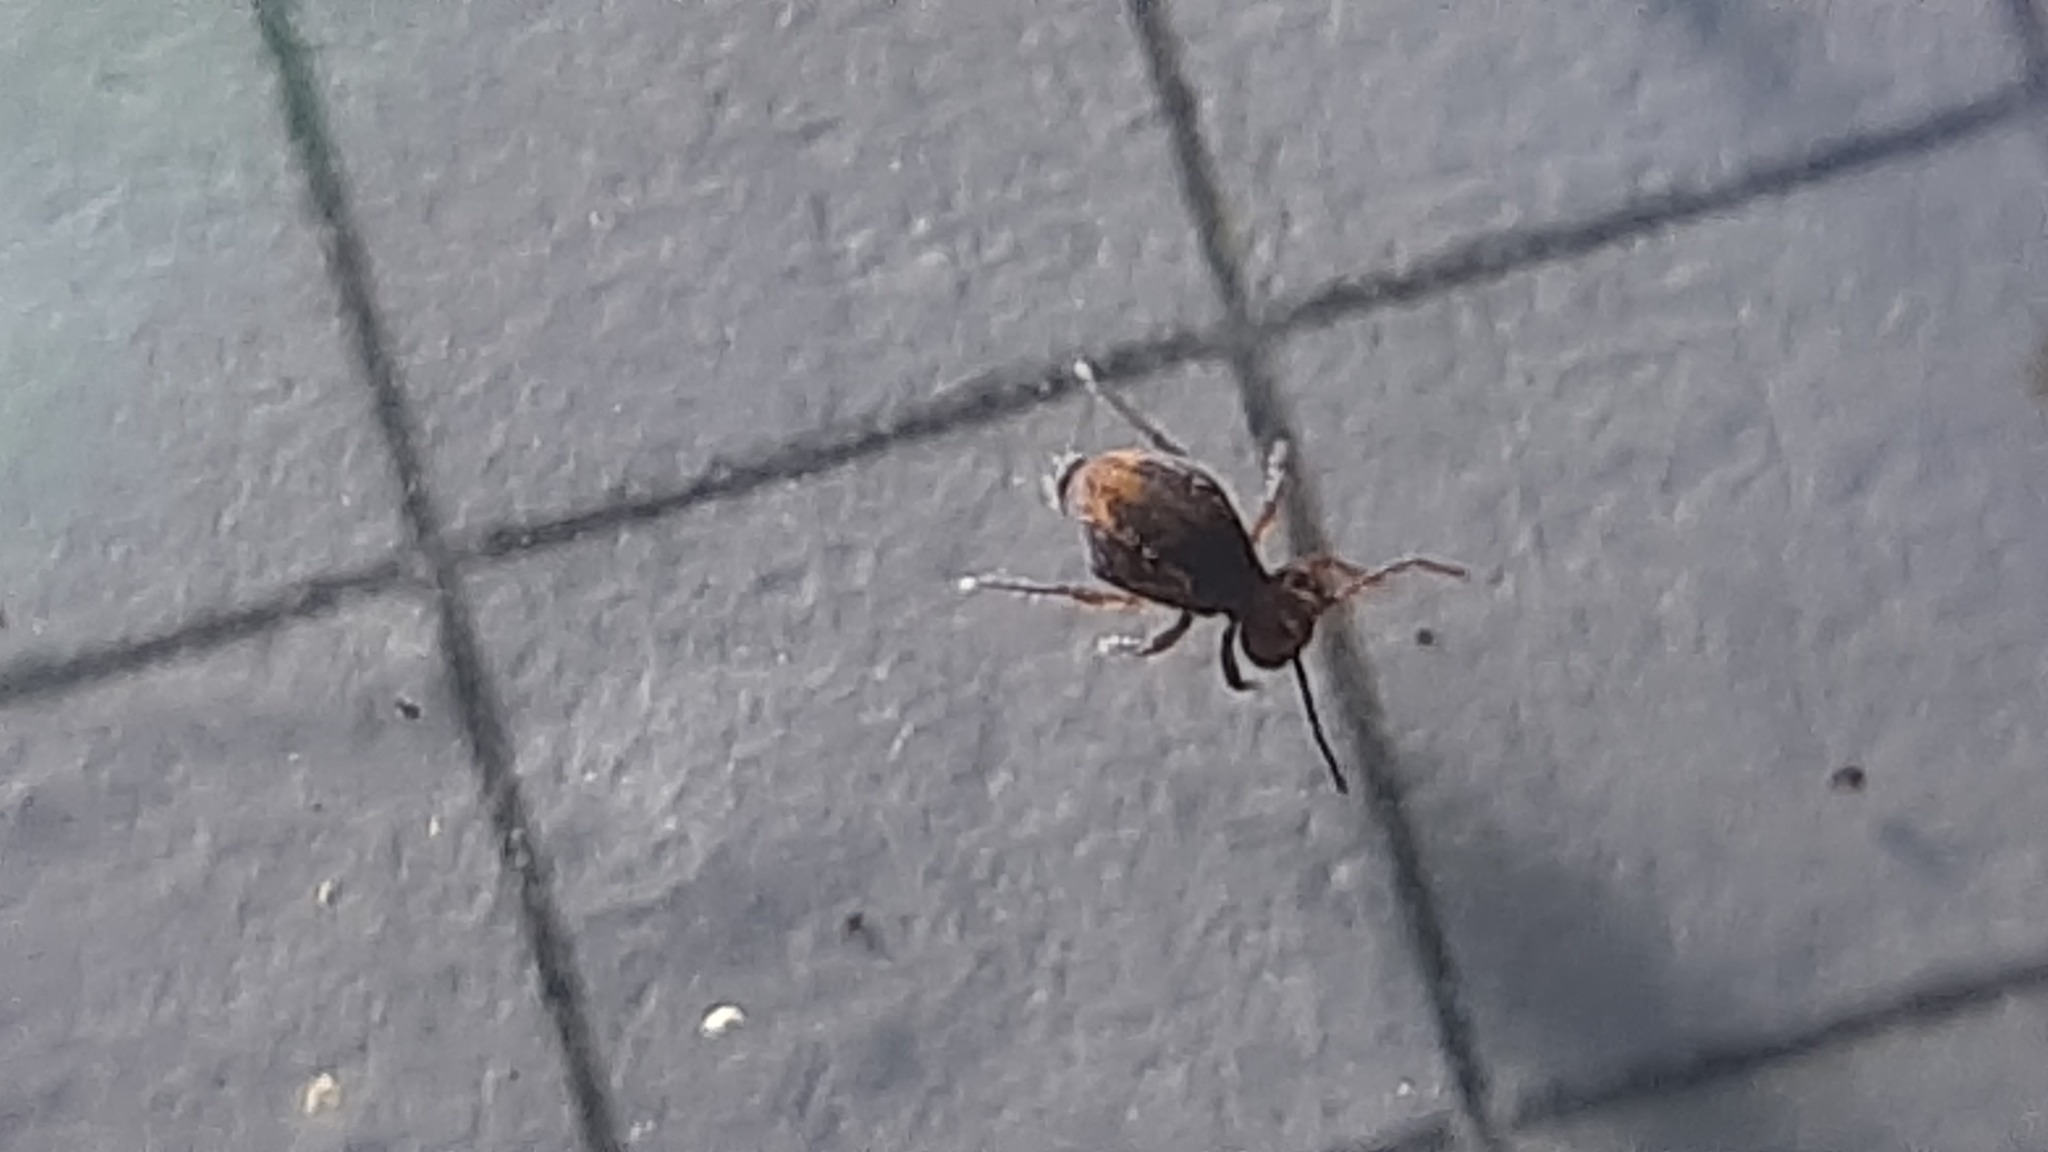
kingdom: Animalia
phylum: Arthropoda
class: Collembola
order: Symphypleona
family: Dicyrtomidae
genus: Dicyrtoma
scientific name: Dicyrtoma fusca
